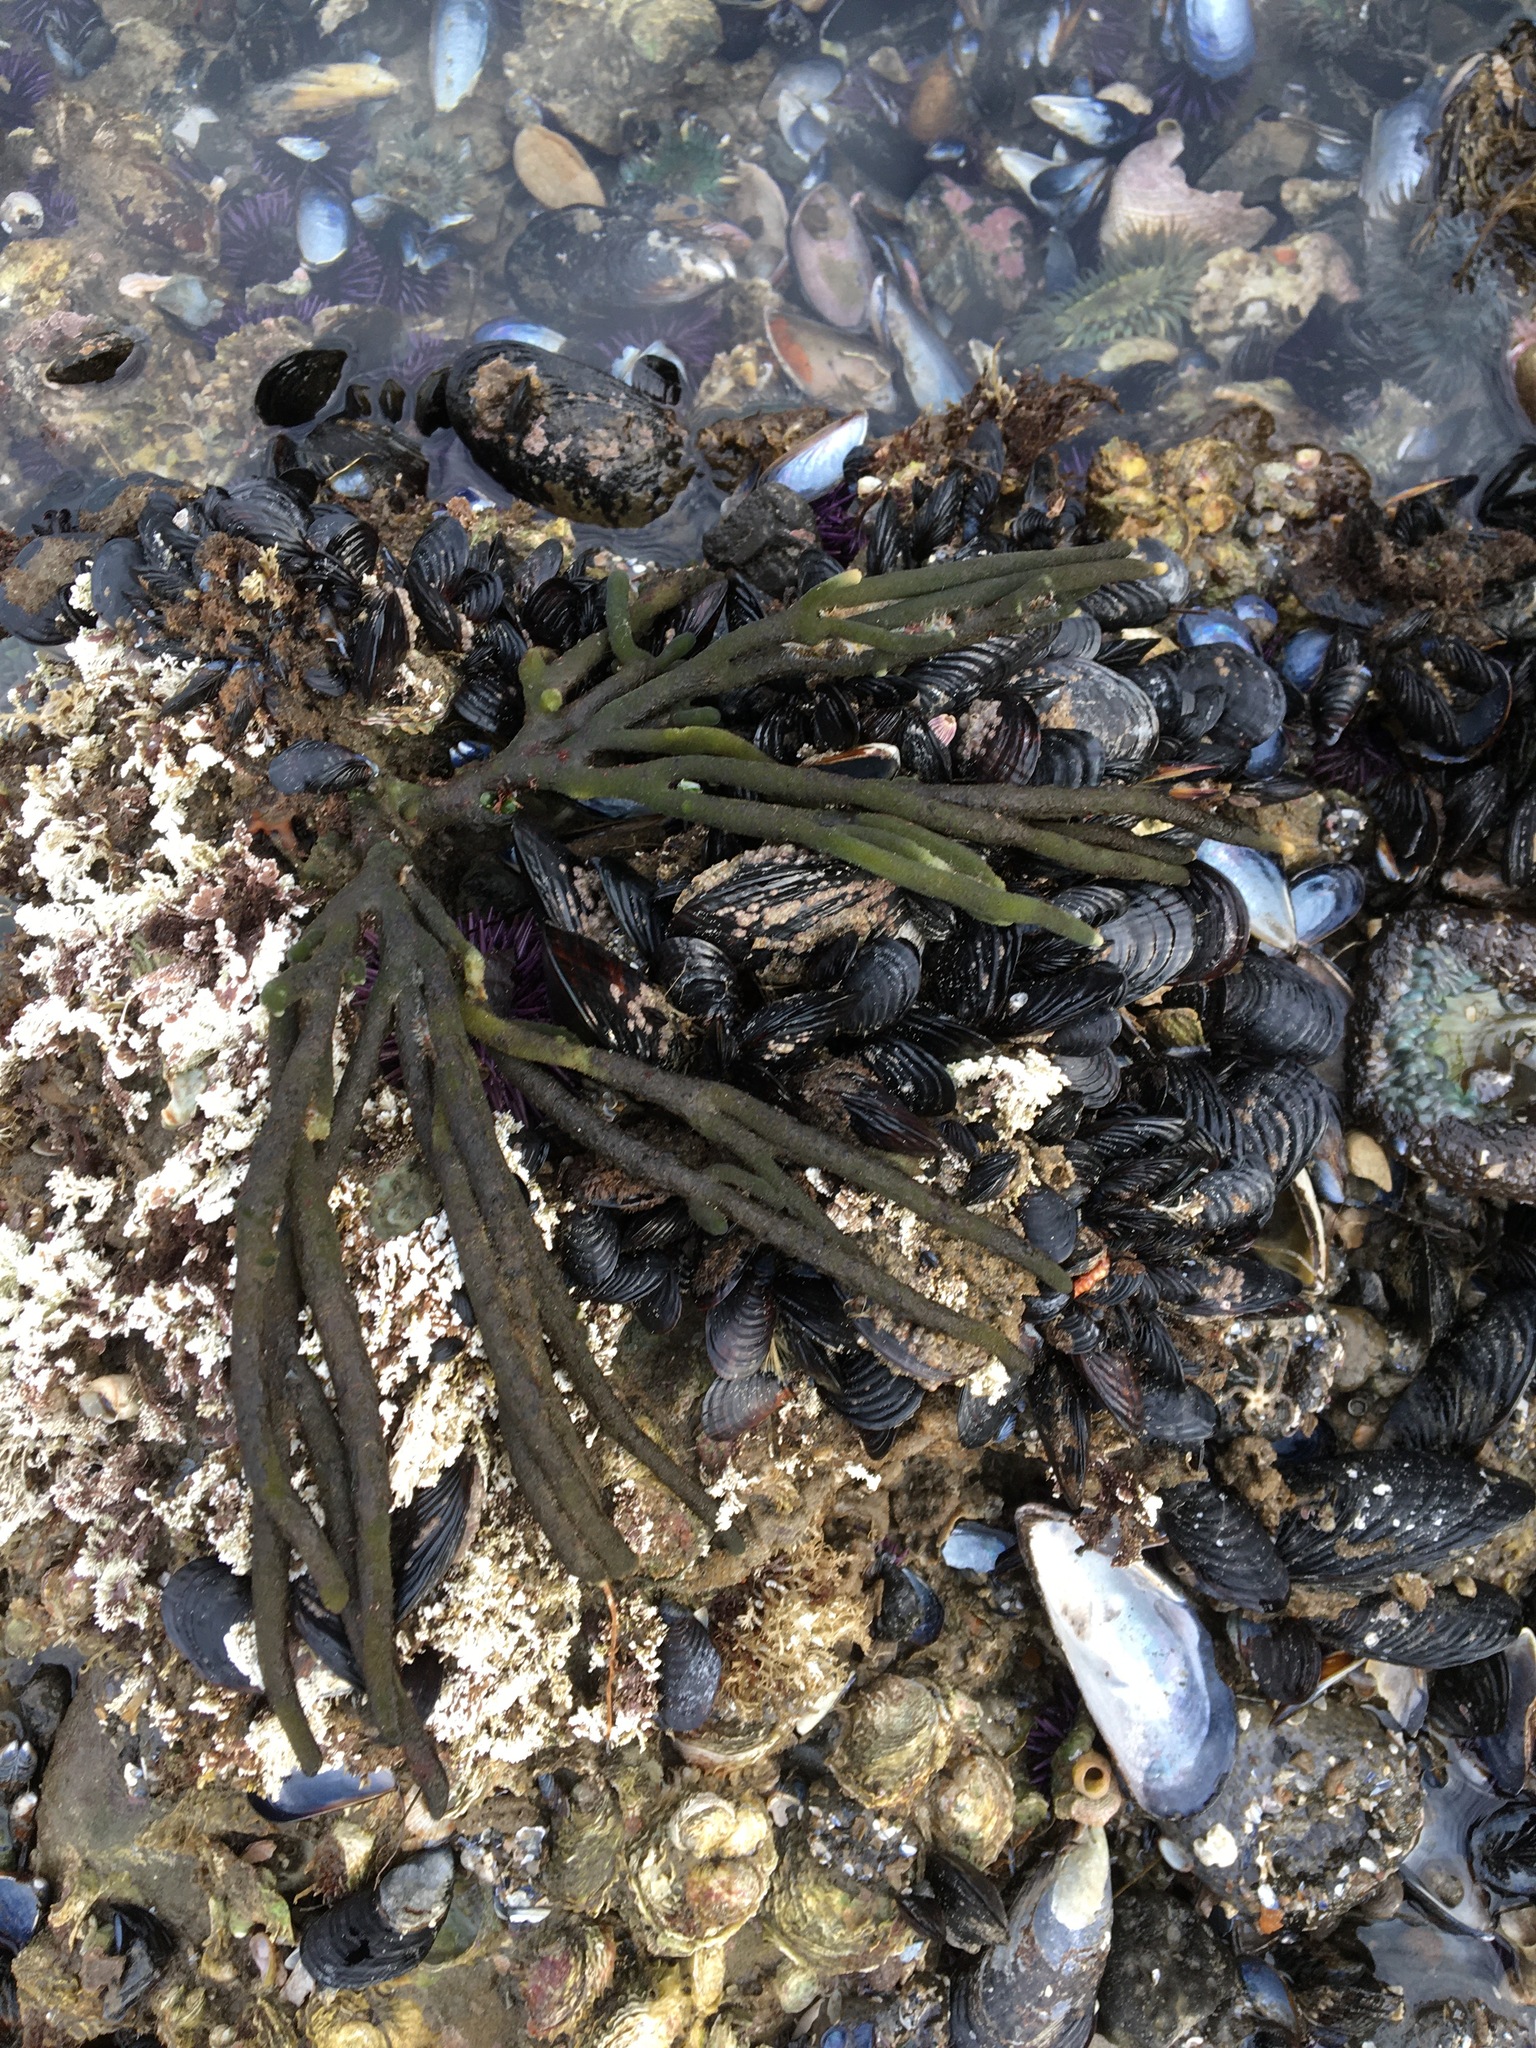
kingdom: Plantae
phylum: Chlorophyta
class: Ulvophyceae
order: Bryopsidales
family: Codiaceae
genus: Codium
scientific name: Codium fragile
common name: Dead man's fingers
